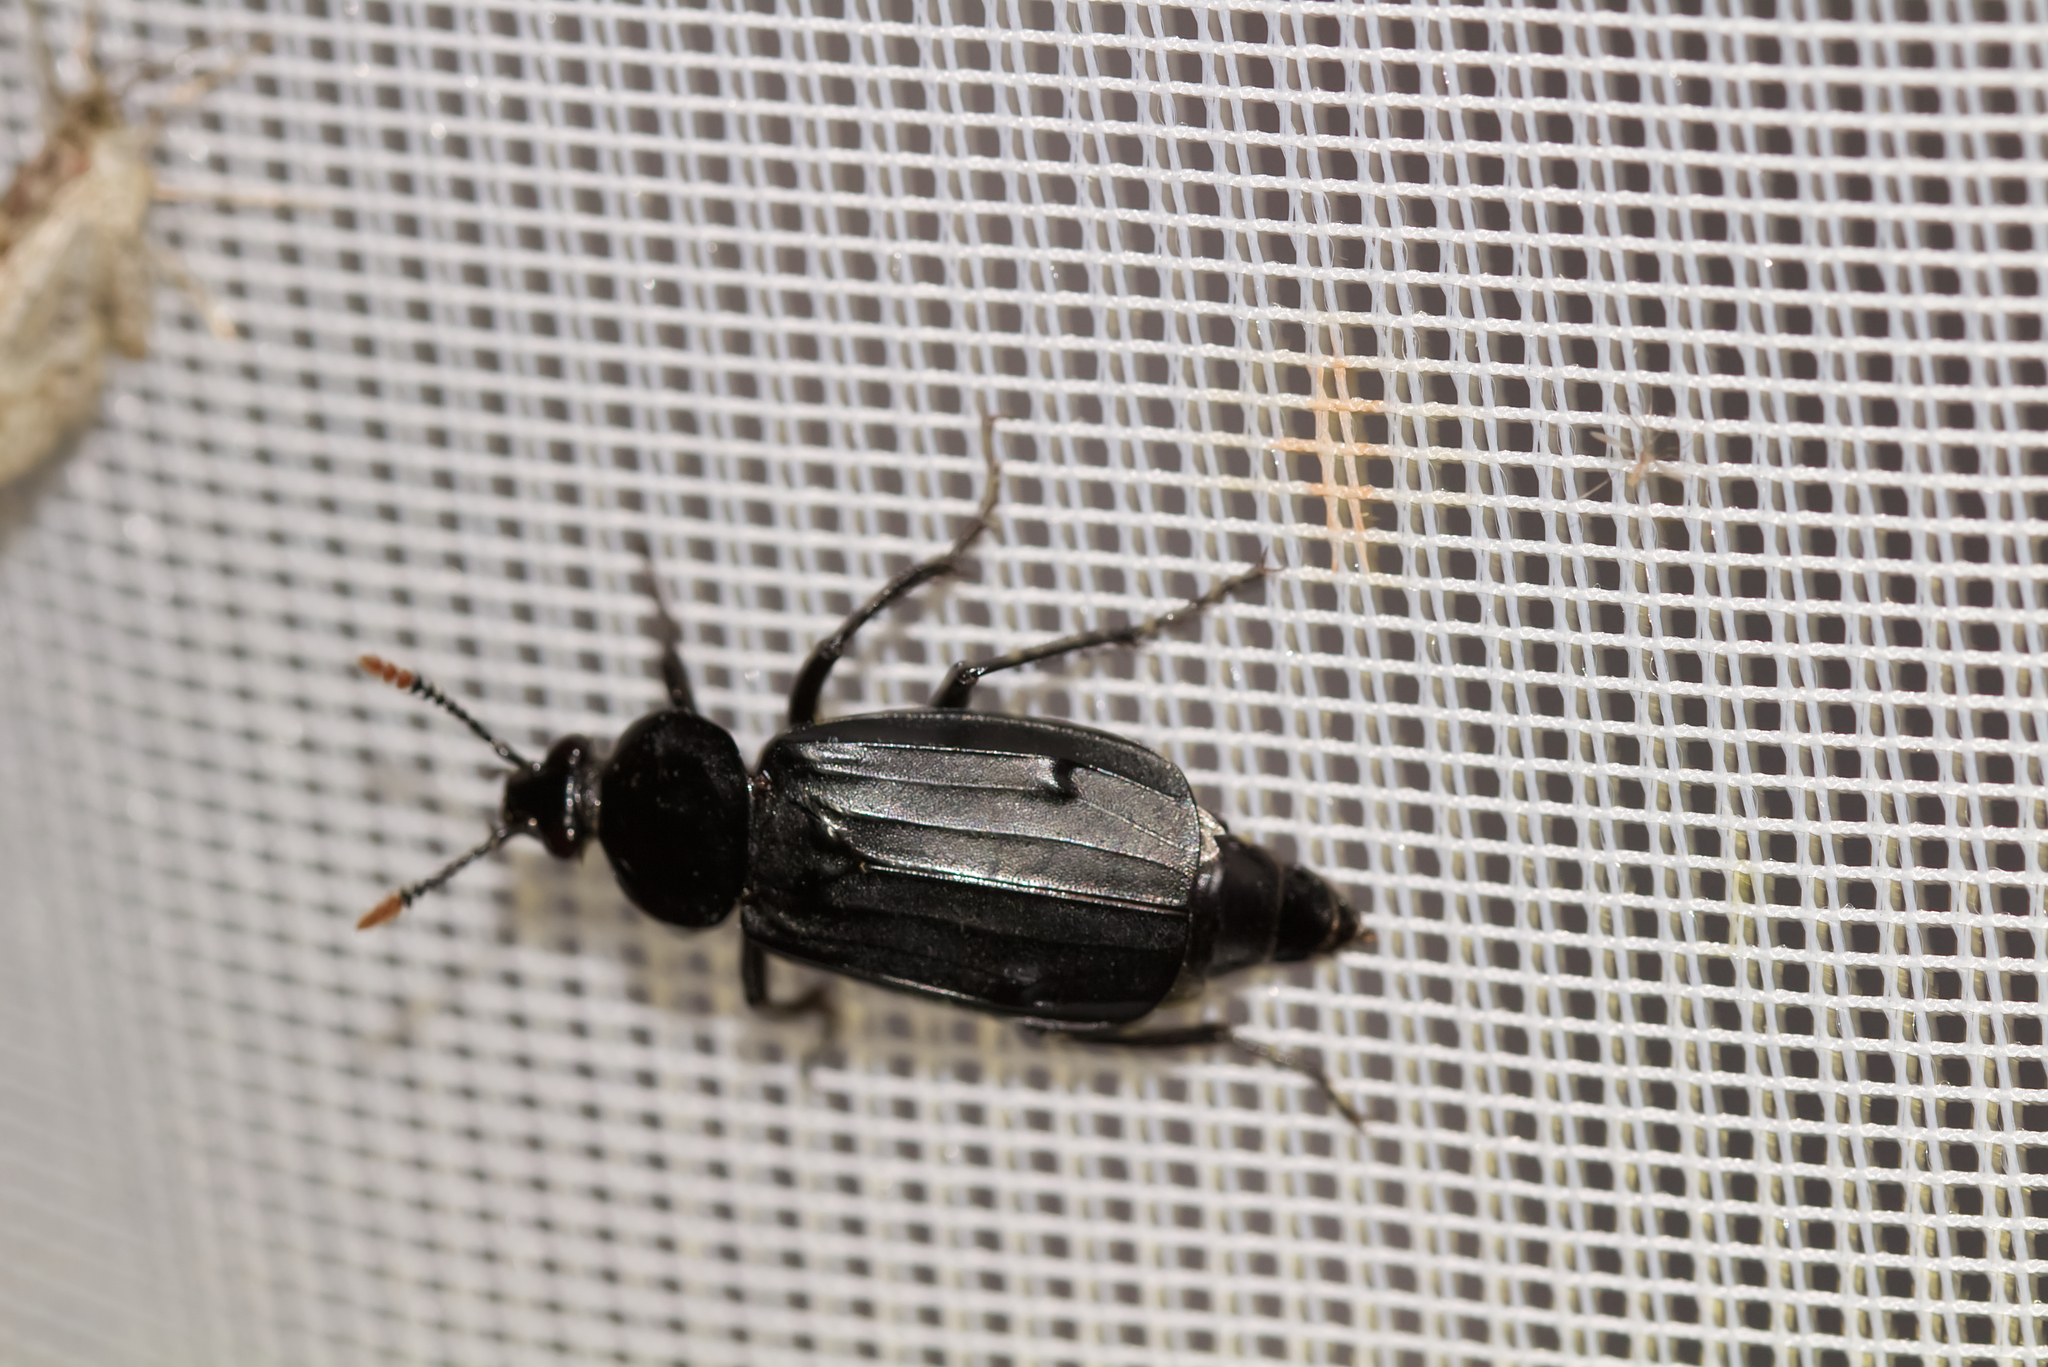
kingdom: Animalia
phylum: Arthropoda
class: Insecta
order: Coleoptera
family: Staphylinidae
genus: Necrodes
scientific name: Necrodes littoralis
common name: Shore sexton beetle
